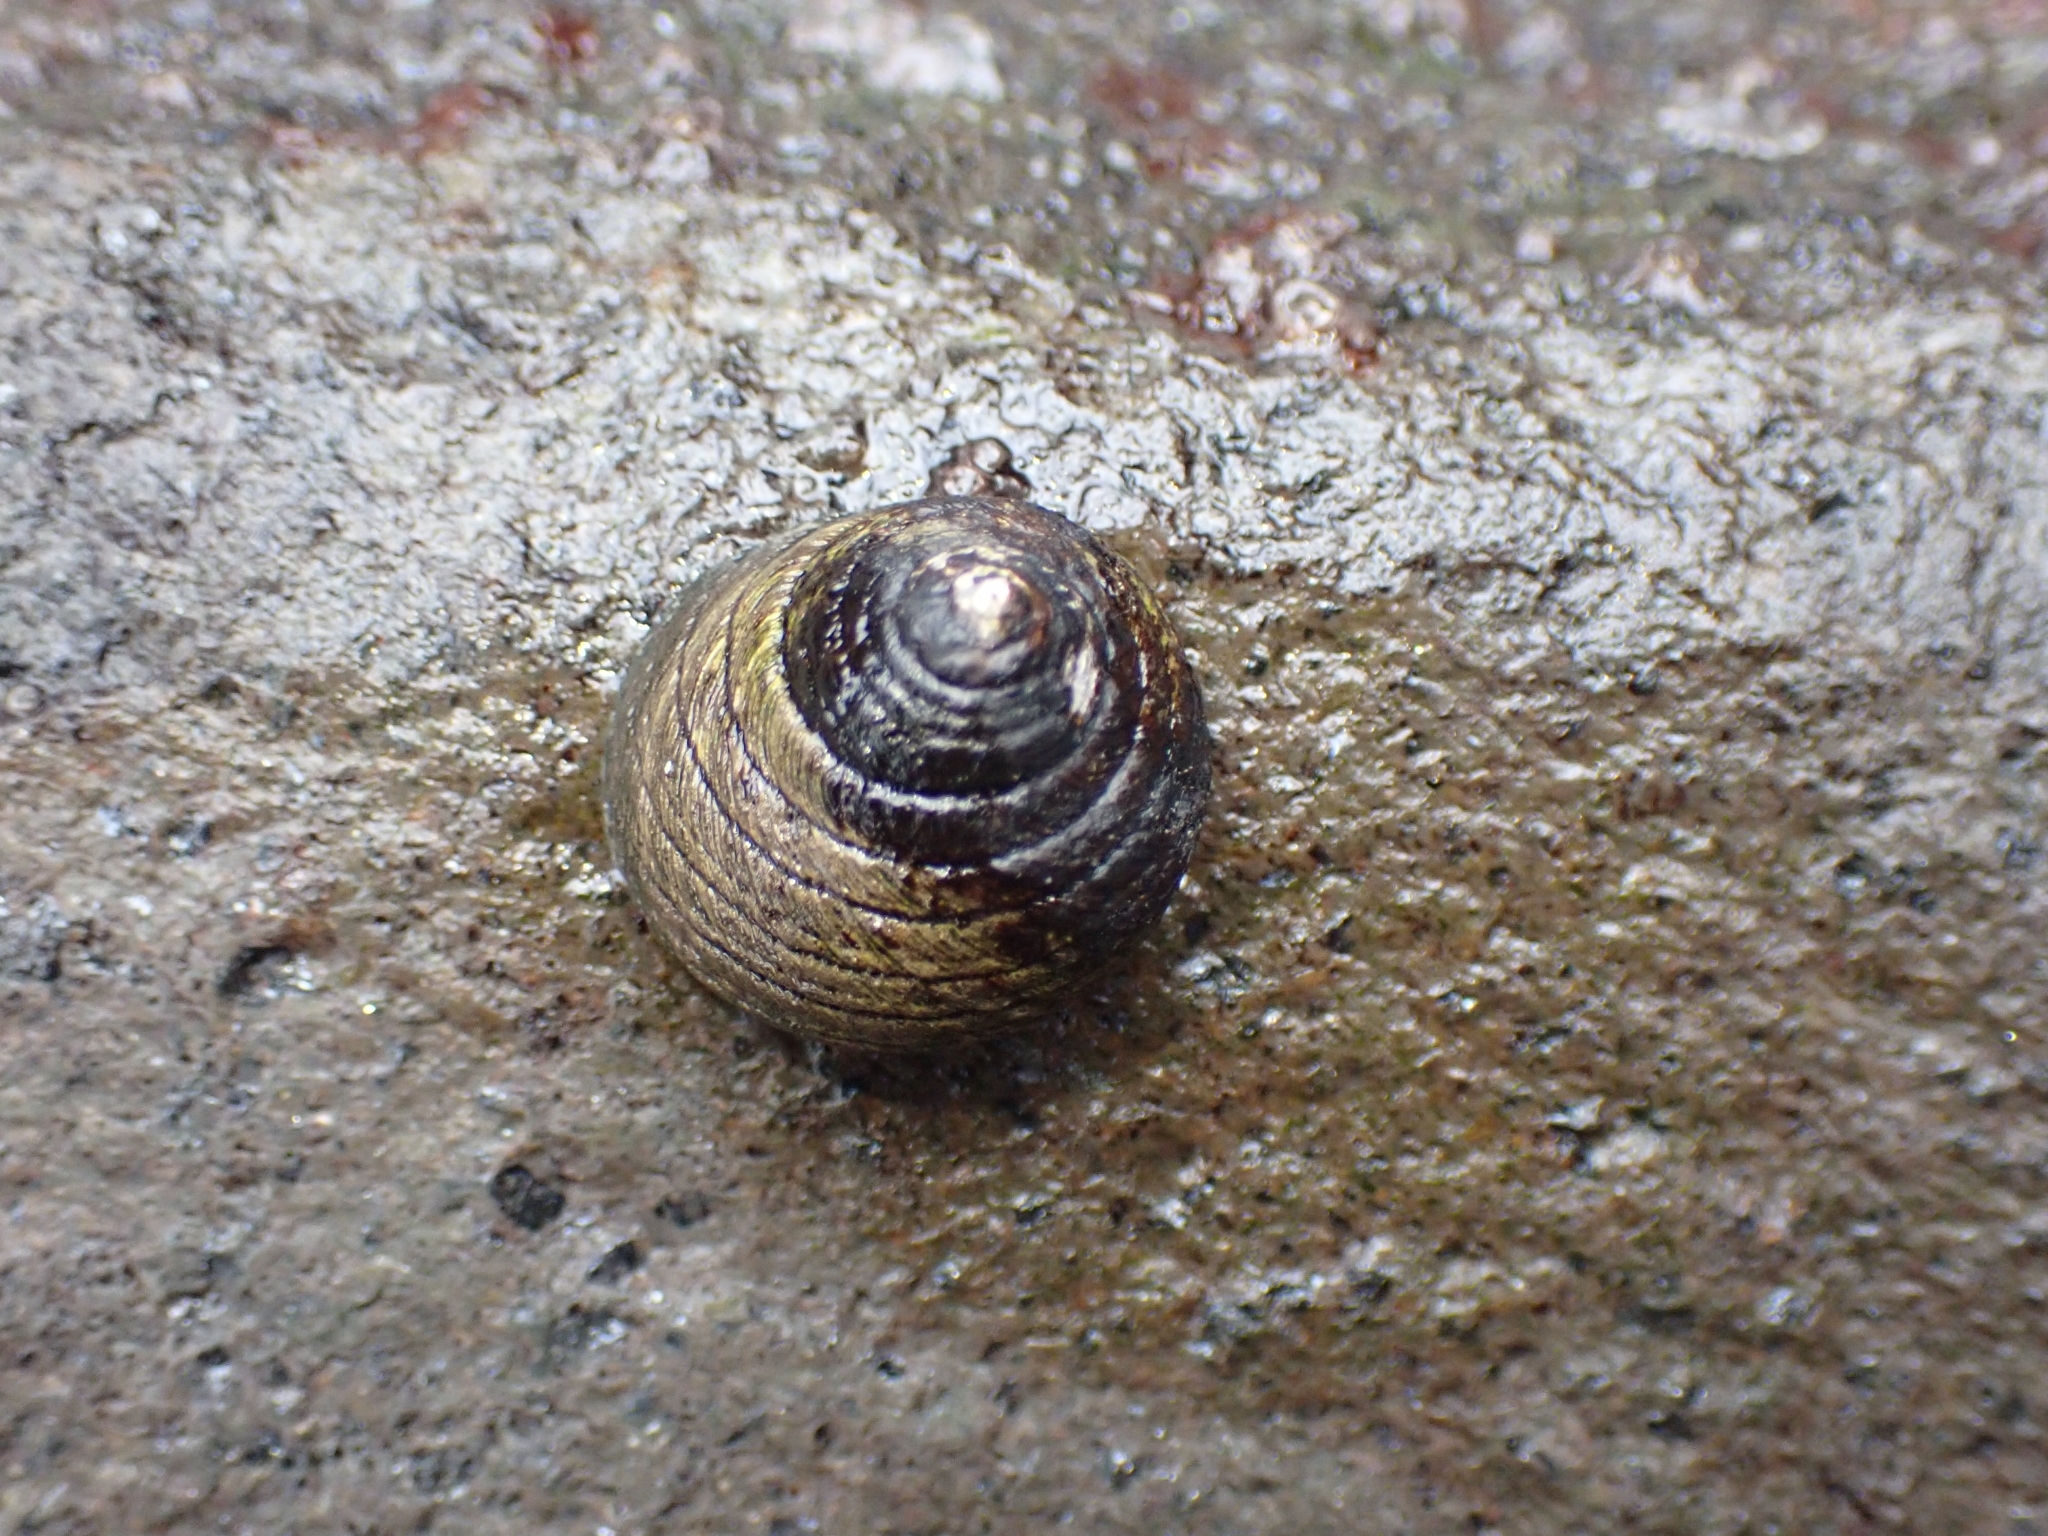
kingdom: Animalia
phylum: Mollusca
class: Gastropoda
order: Trochida
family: Trochidae
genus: Diloma
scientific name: Diloma aethiops
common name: Scorched monodont
